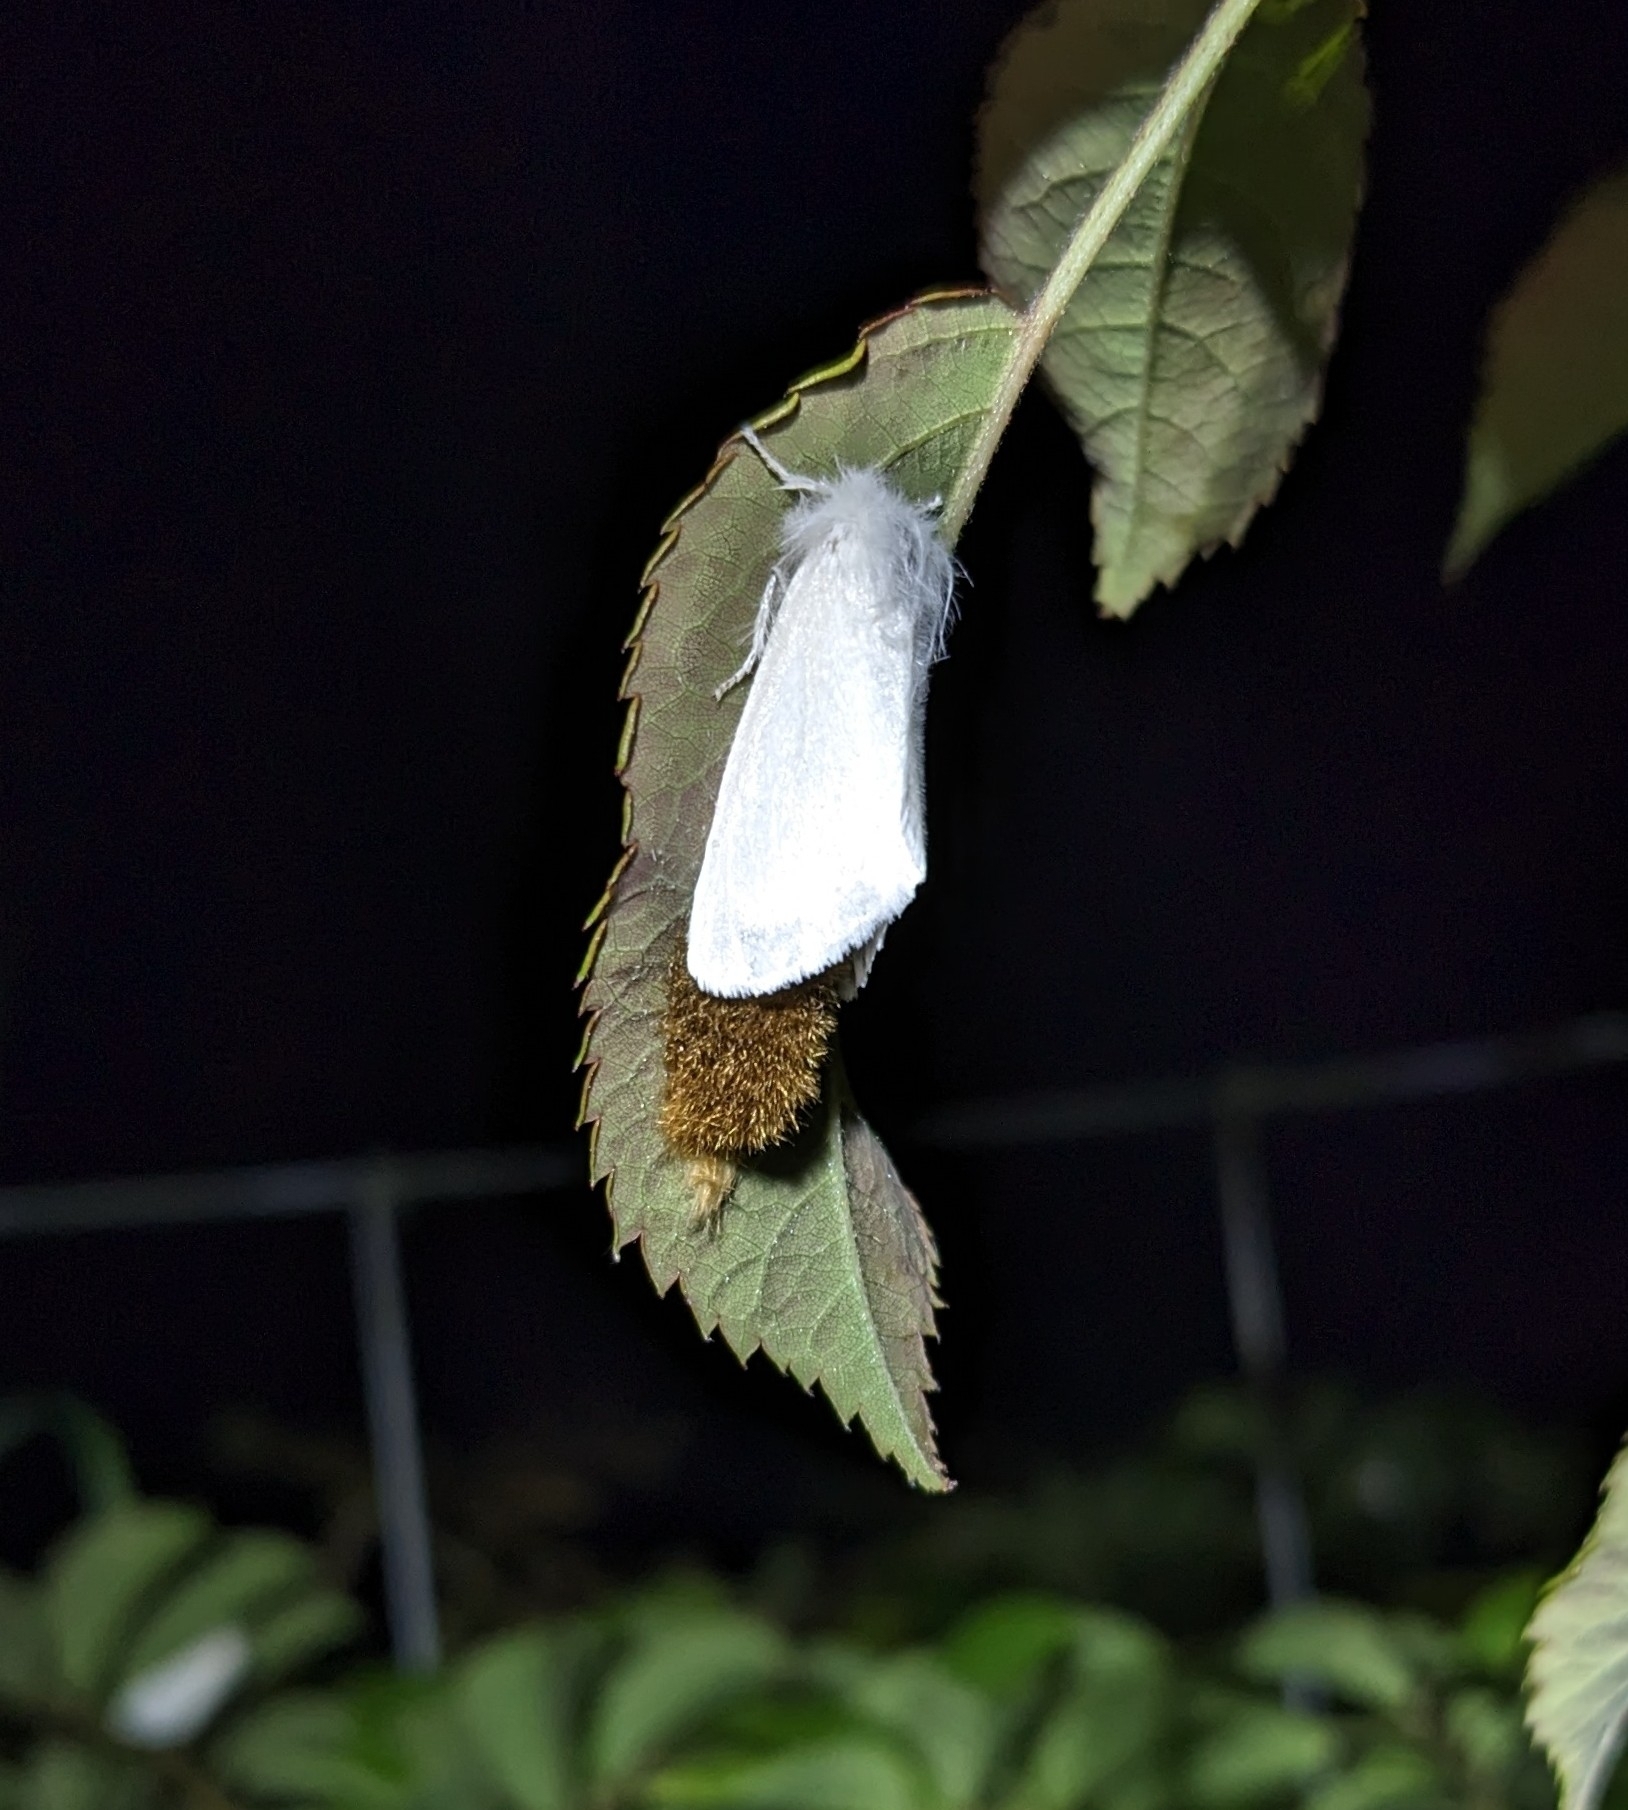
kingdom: Animalia
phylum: Arthropoda
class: Insecta
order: Lepidoptera
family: Erebidae
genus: Euproctis
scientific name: Euproctis chrysorrhoea
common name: Brown-tail
